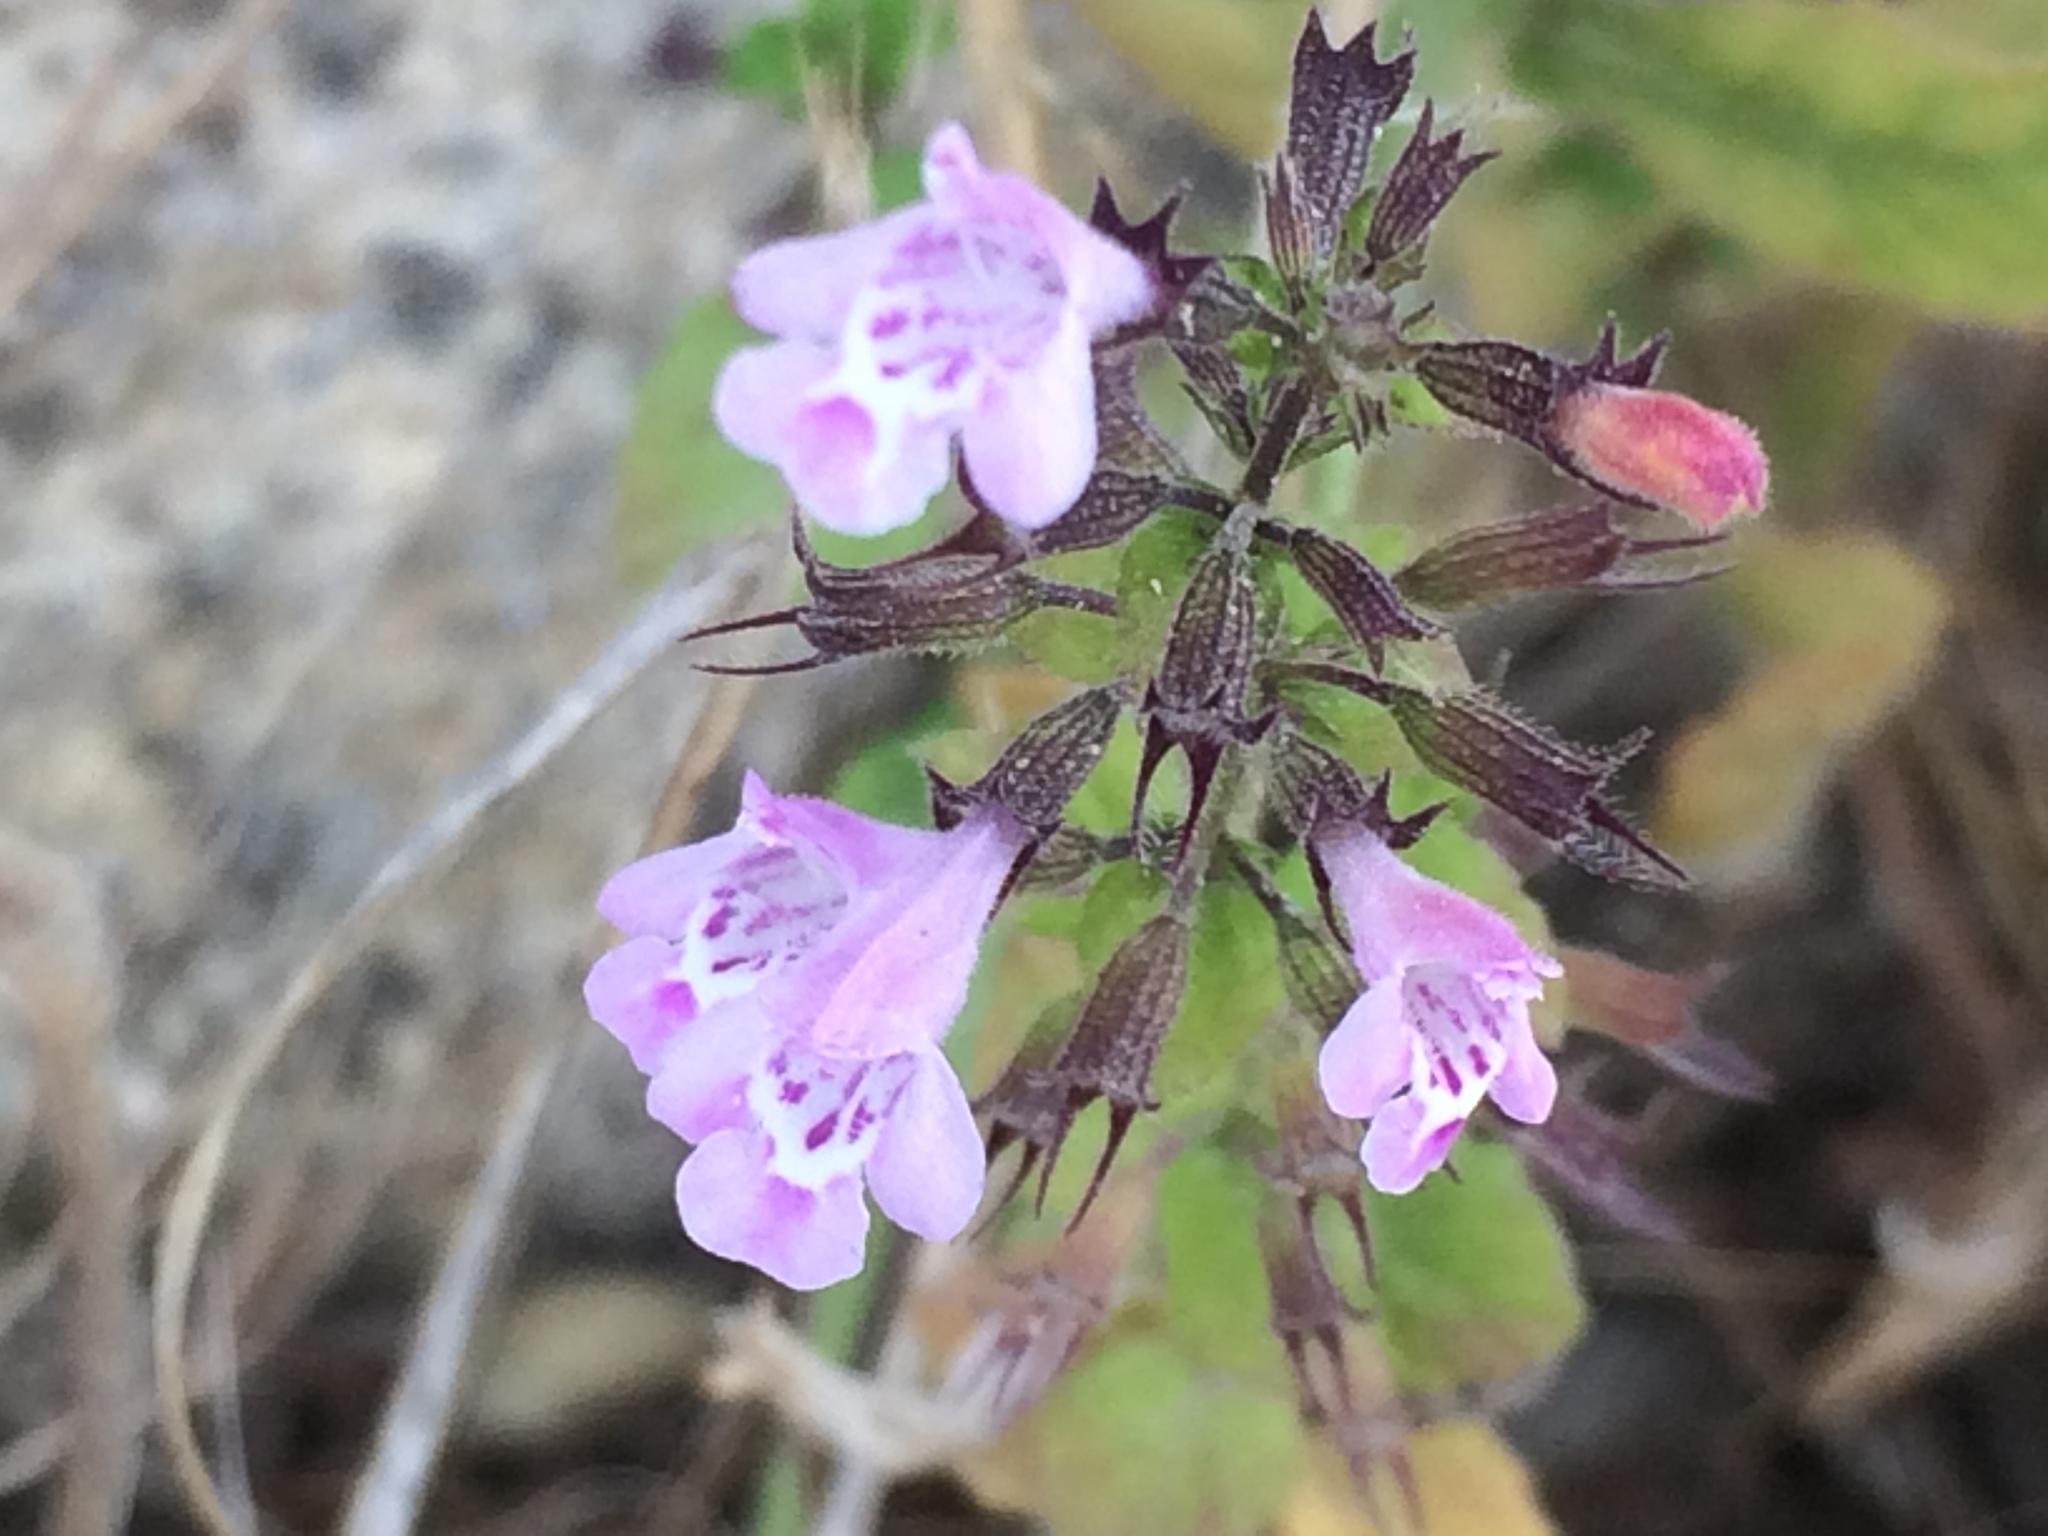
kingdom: Plantae
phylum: Tracheophyta
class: Magnoliopsida
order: Lamiales
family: Lamiaceae
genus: Clinopodium
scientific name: Clinopodium nepeta
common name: Lesser calamint
